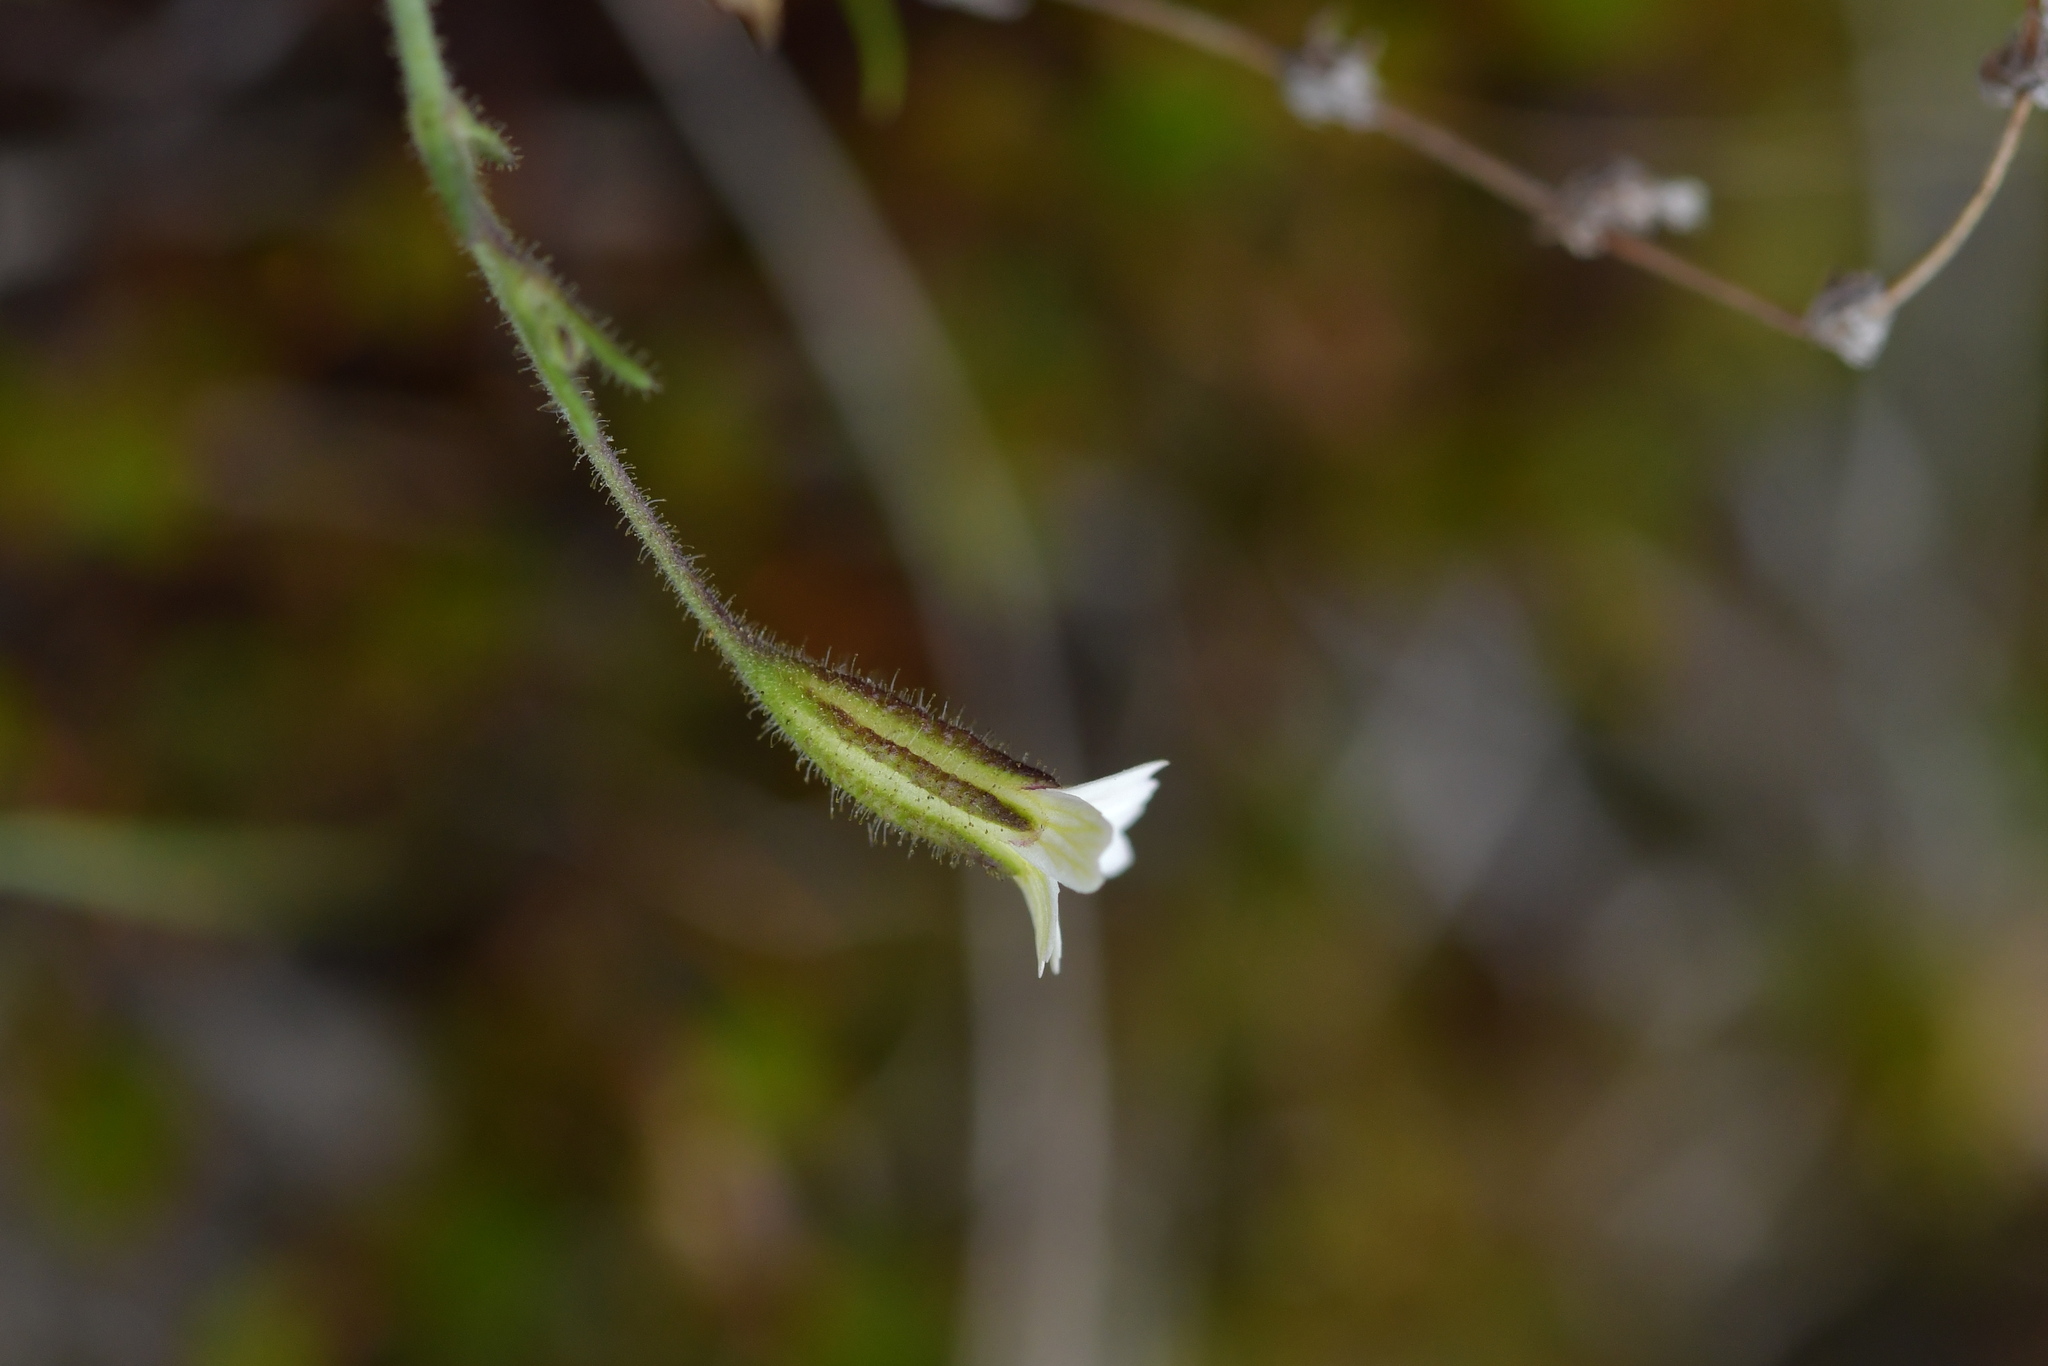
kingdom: Plantae
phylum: Tracheophyta
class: Magnoliopsida
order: Caryophyllales
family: Caryophyllaceae
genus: Gypsophila
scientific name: Gypsophila australis
